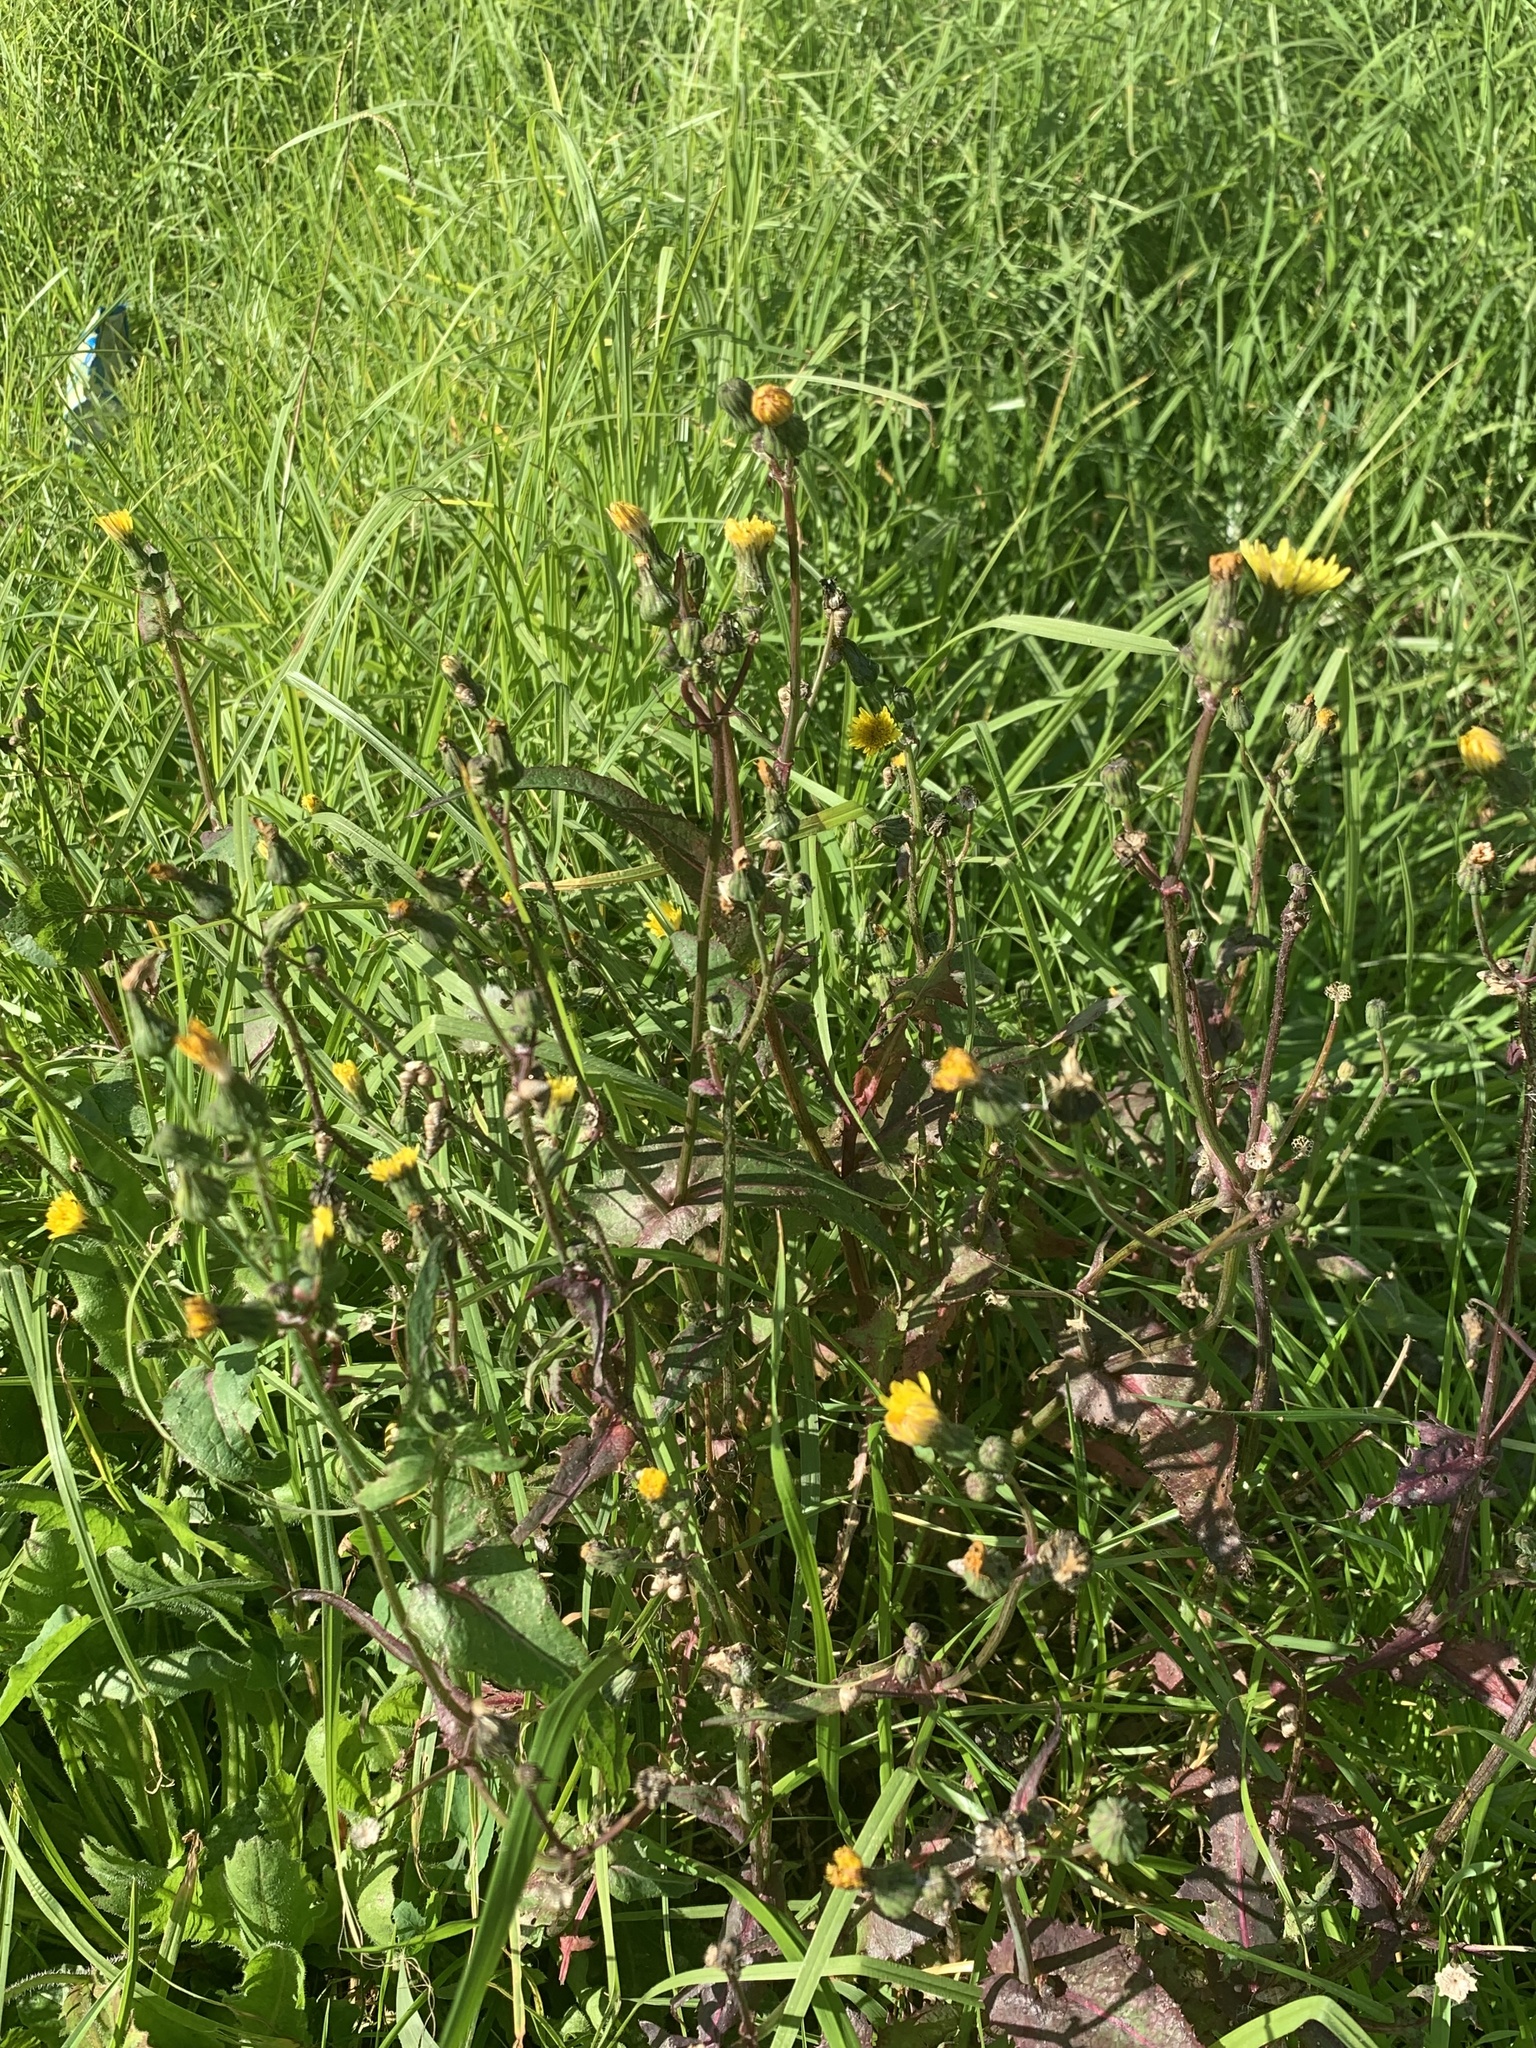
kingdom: Plantae
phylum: Tracheophyta
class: Magnoliopsida
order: Asterales
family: Asteraceae
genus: Sonchus
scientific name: Sonchus oleraceus
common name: Common sowthistle
